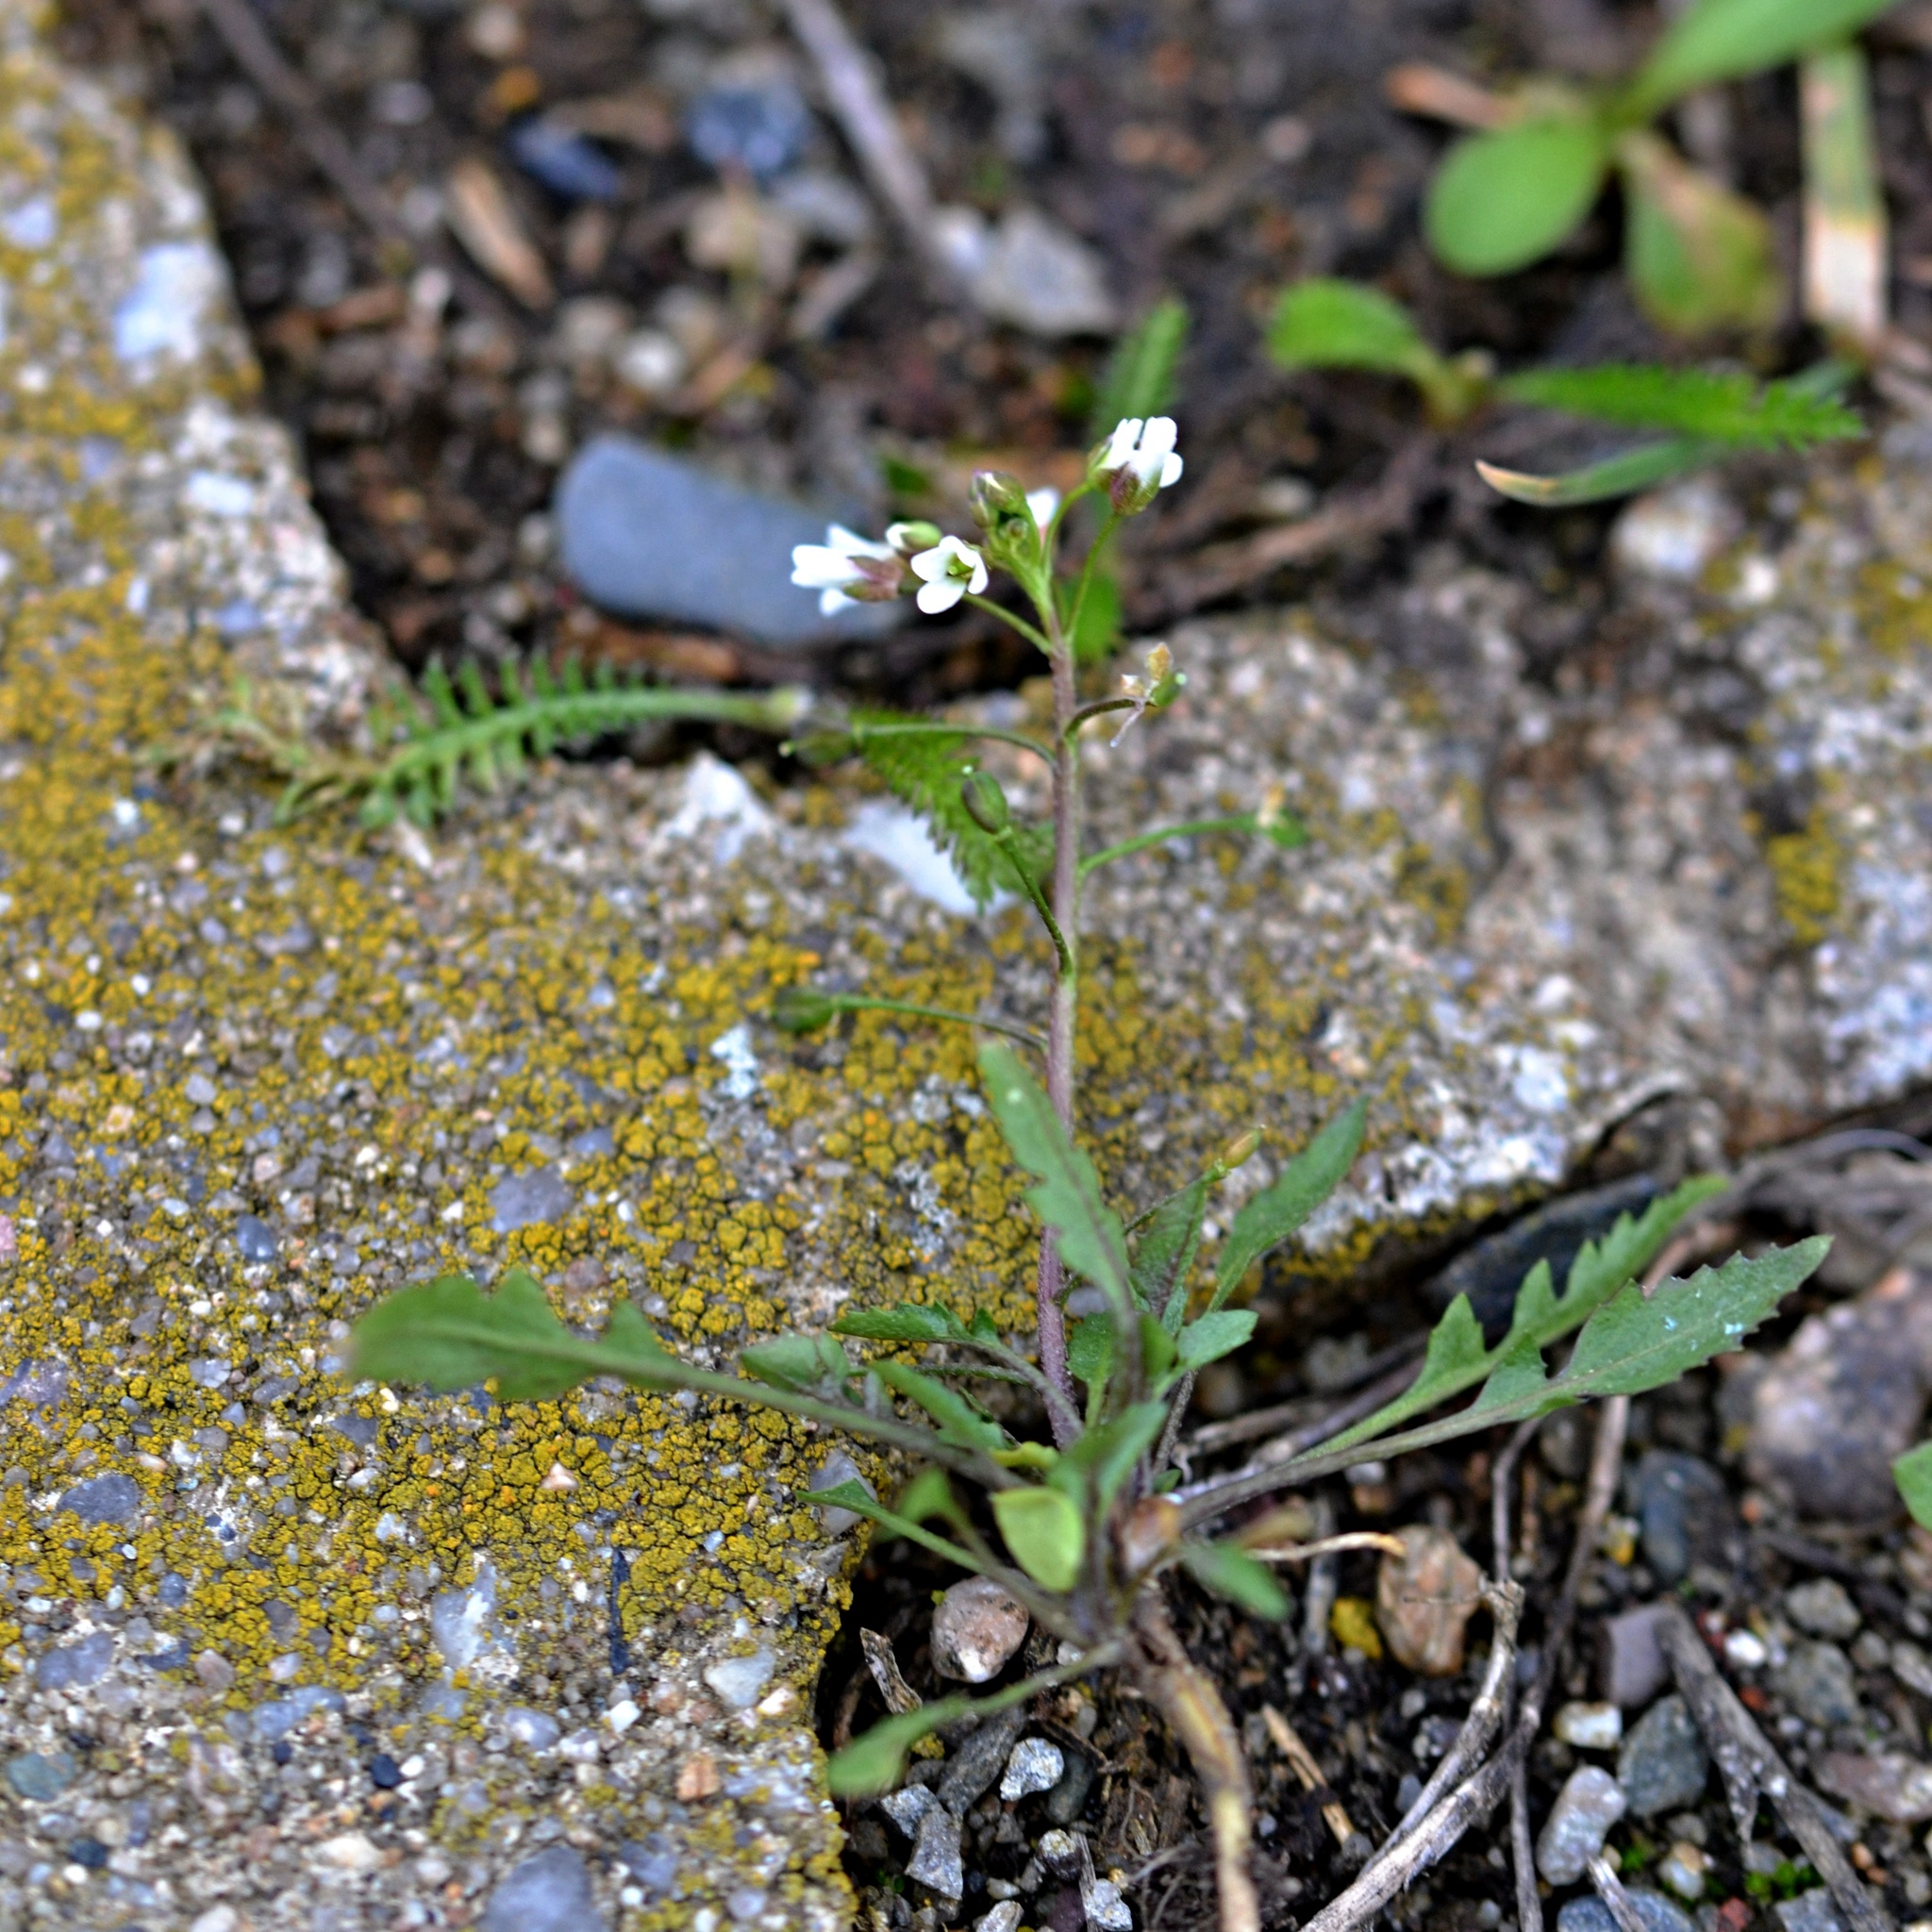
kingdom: Plantae
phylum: Tracheophyta
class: Magnoliopsida
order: Brassicales
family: Brassicaceae
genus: Capsella
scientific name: Capsella bursa-pastoris
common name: Shepherd's purse
